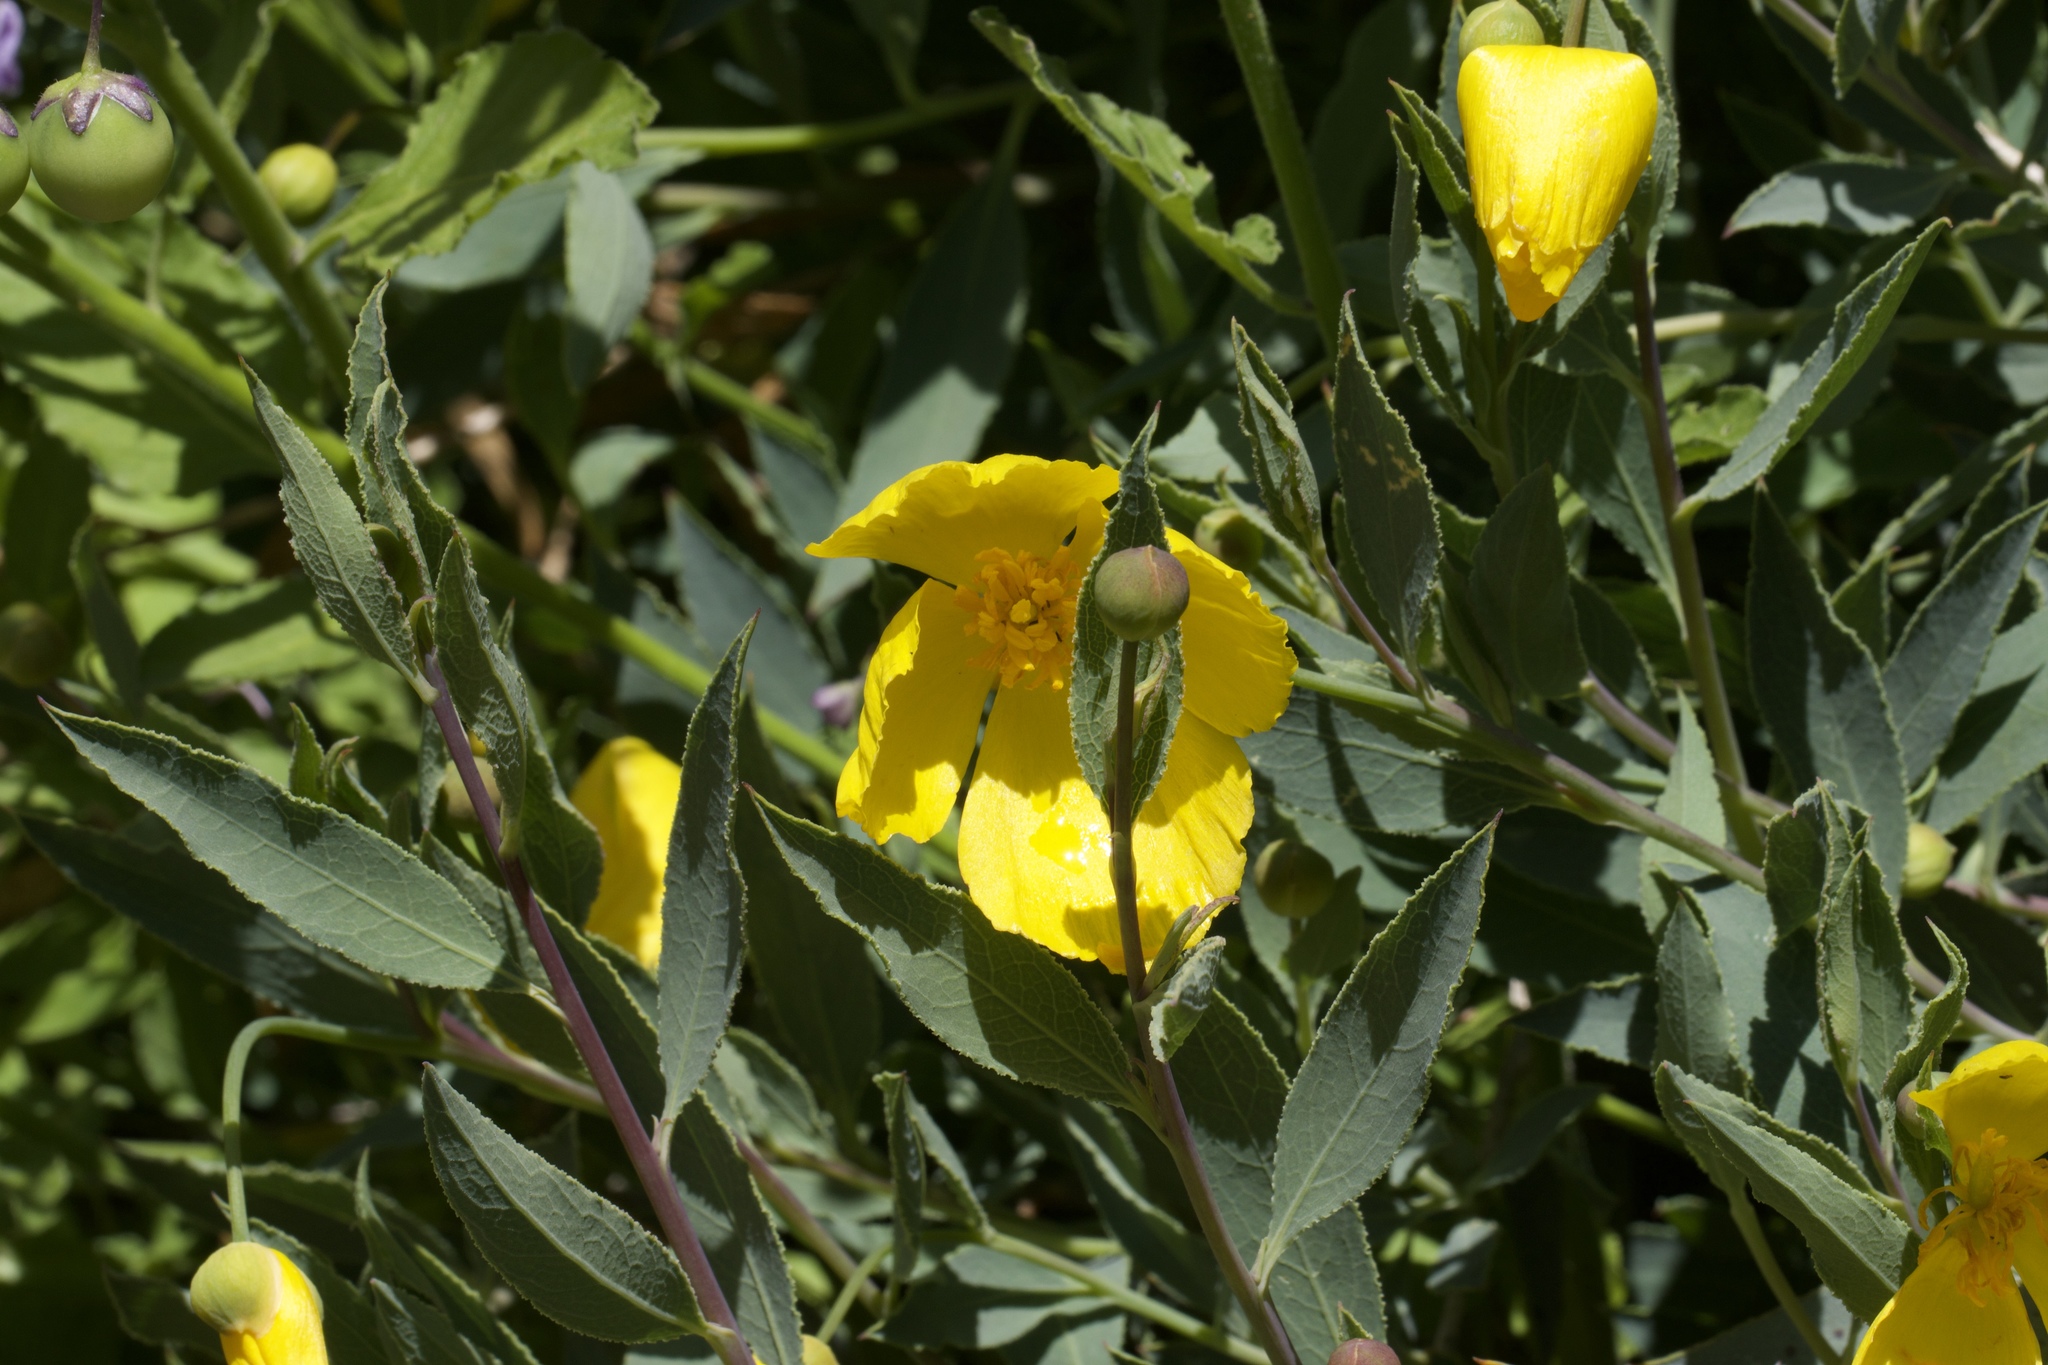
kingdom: Plantae
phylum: Tracheophyta
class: Magnoliopsida
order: Ranunculales
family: Papaveraceae
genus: Dendromecon
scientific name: Dendromecon rigida
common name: Tree poppy
